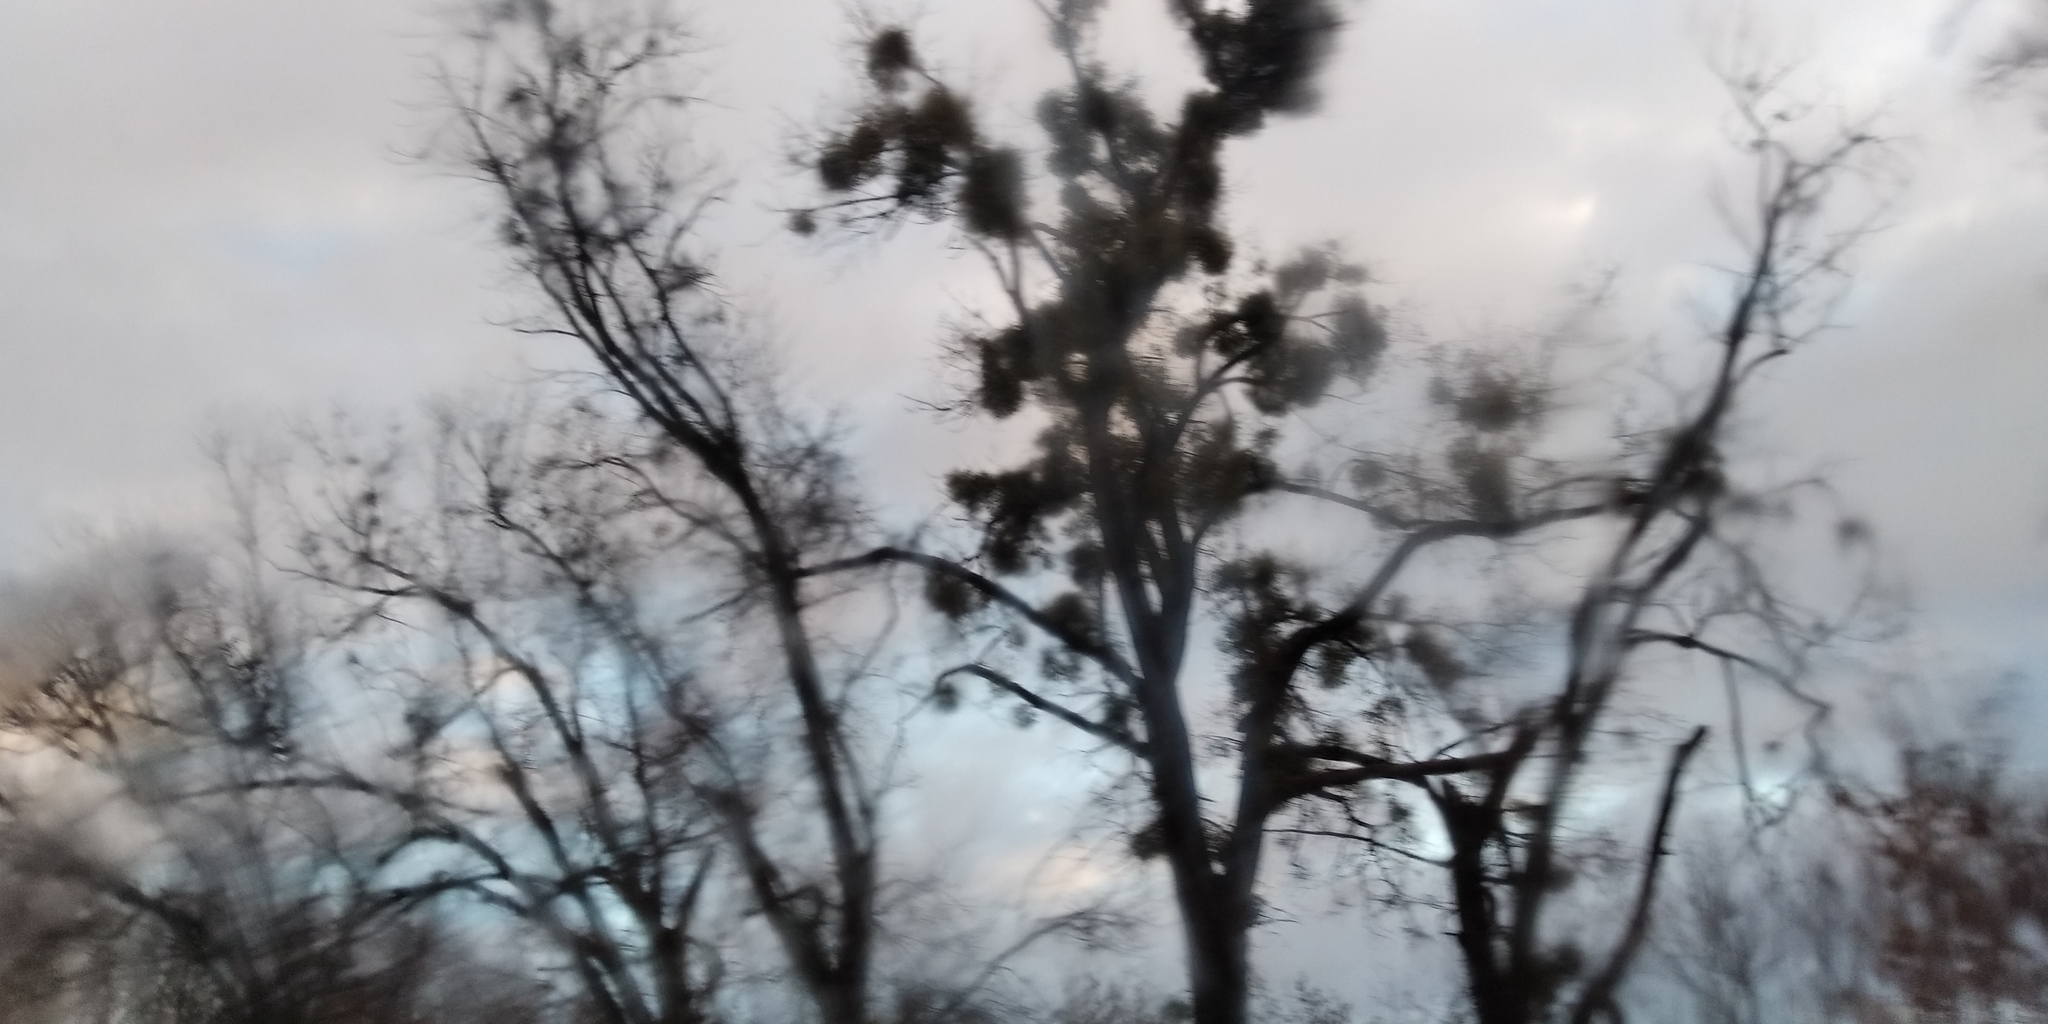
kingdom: Plantae
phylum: Tracheophyta
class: Magnoliopsida
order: Santalales
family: Viscaceae
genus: Viscum
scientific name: Viscum album
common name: Mistletoe
